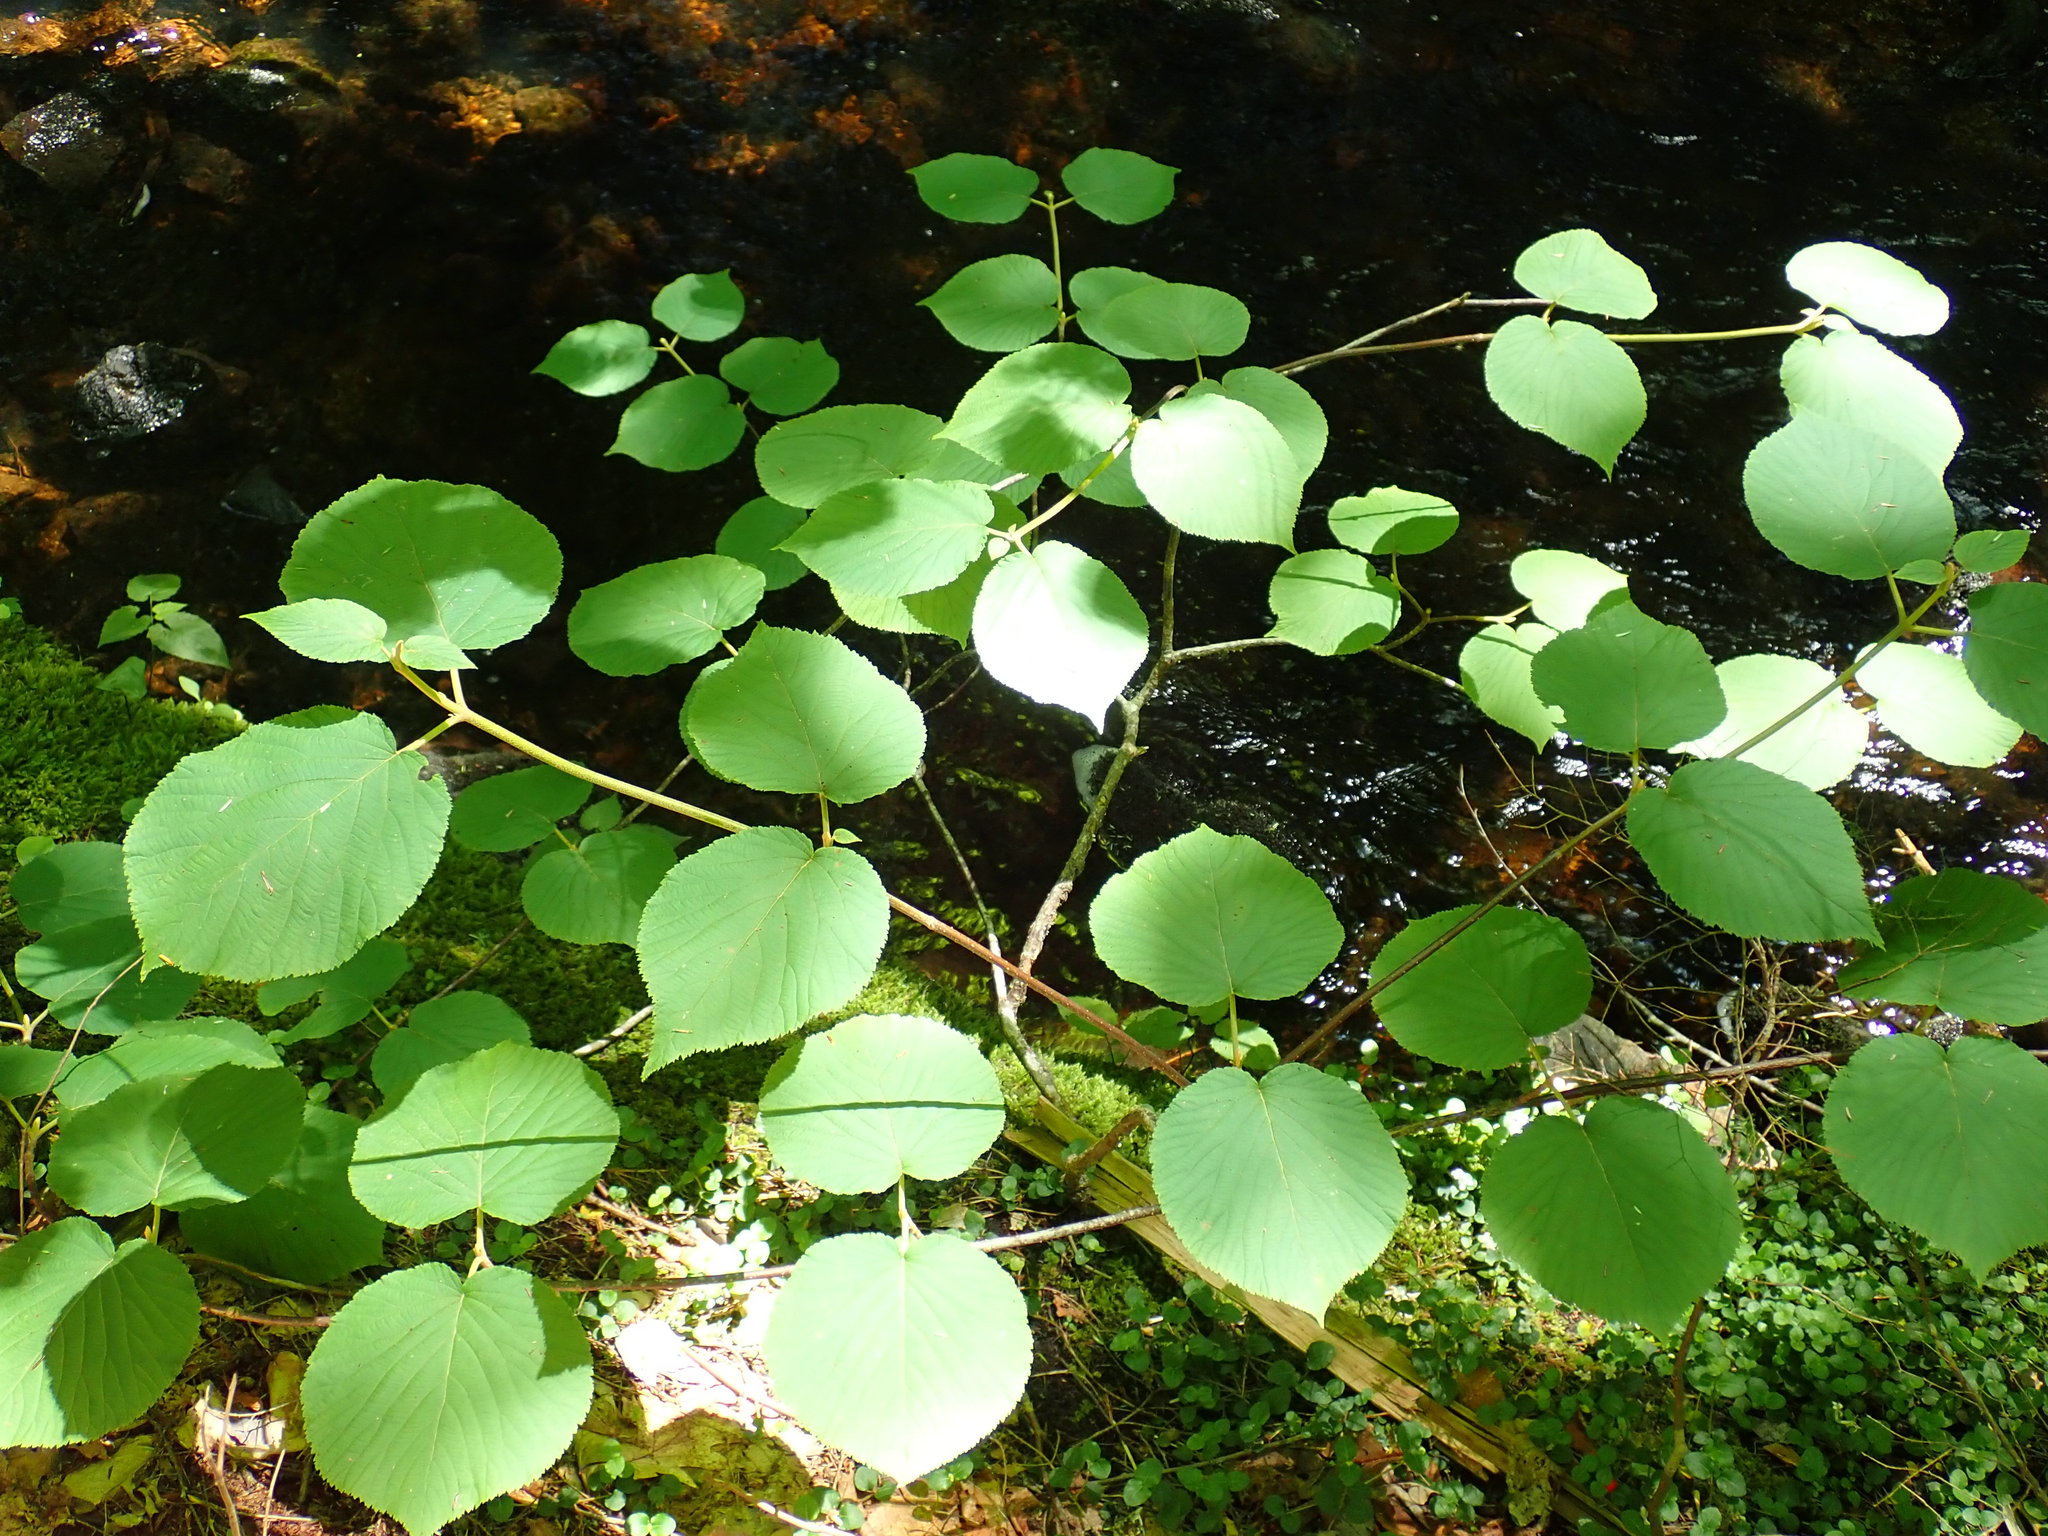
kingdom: Plantae
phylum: Tracheophyta
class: Magnoliopsida
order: Dipsacales
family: Viburnaceae
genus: Viburnum
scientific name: Viburnum lantanoides
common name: Hobblebush
